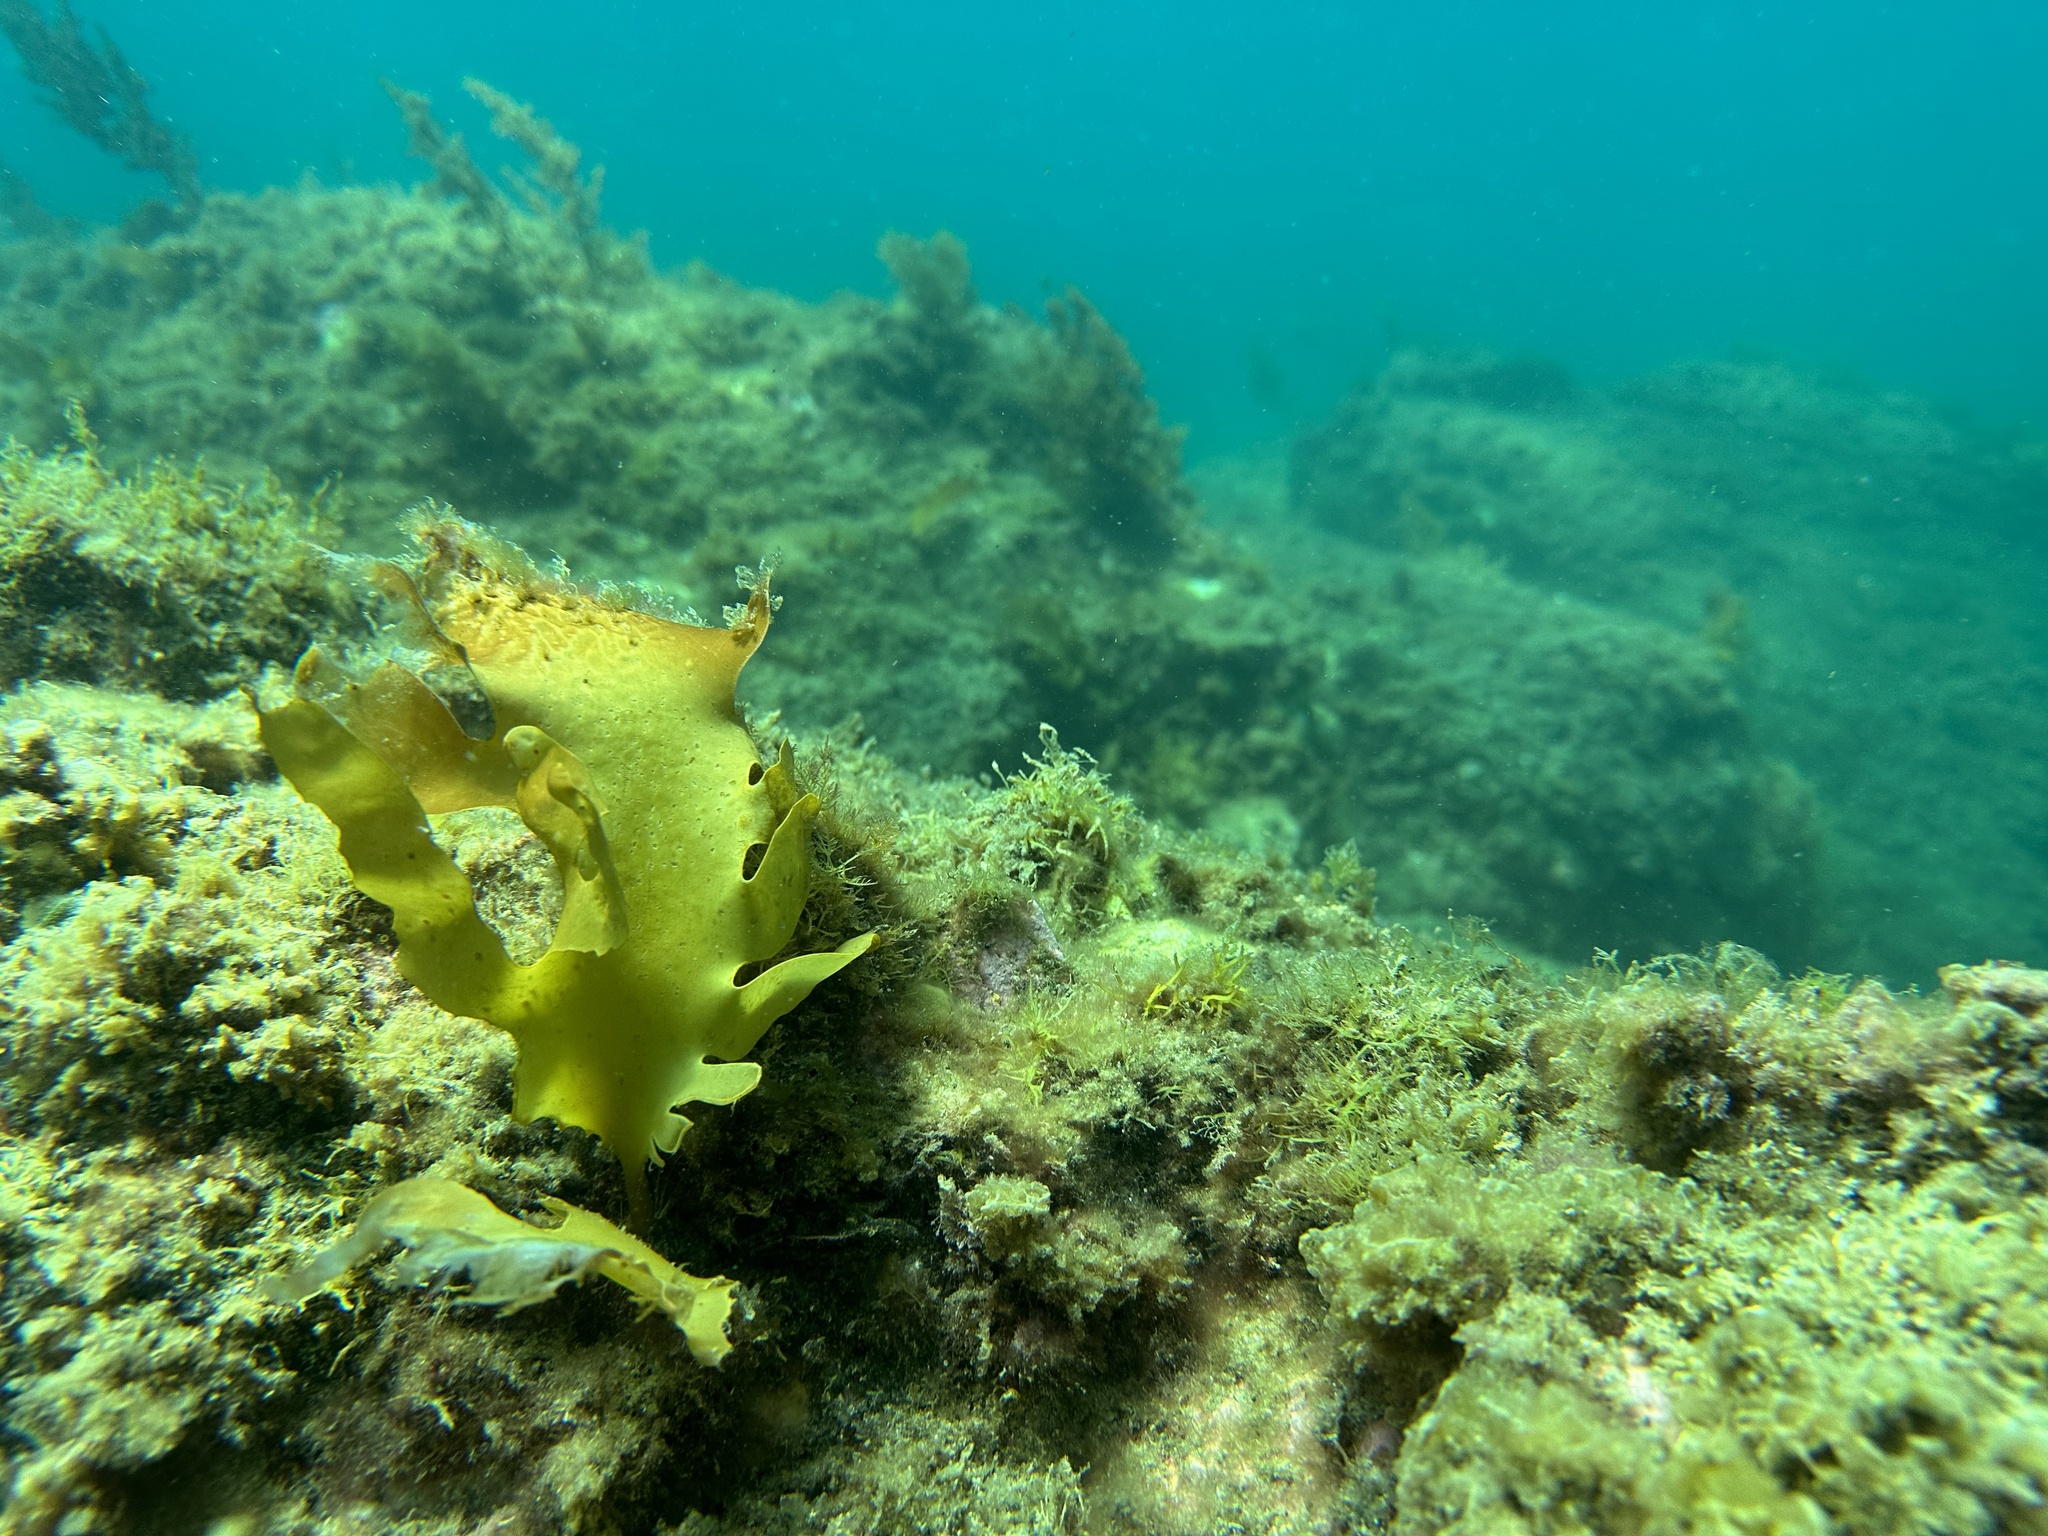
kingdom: Chromista
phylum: Ochrophyta
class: Phaeophyceae
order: Laminariales
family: Lessoniaceae
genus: Ecklonia
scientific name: Ecklonia radiata
